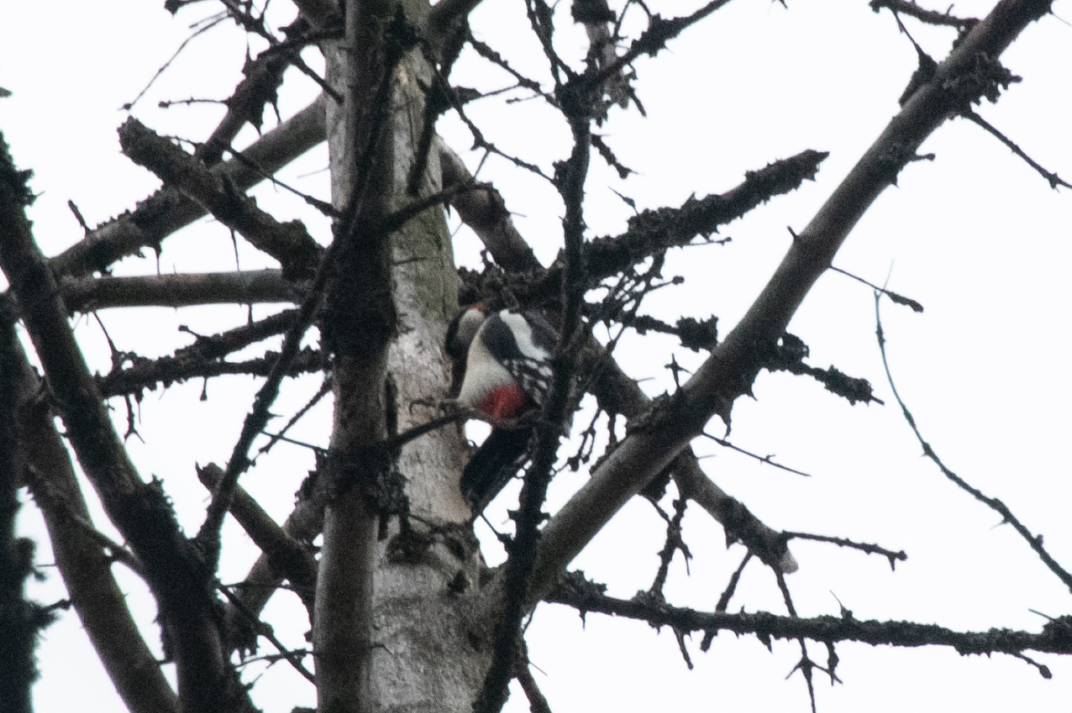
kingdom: Animalia
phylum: Chordata
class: Aves
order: Piciformes
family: Picidae
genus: Dendrocopos
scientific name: Dendrocopos major
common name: Great spotted woodpecker
